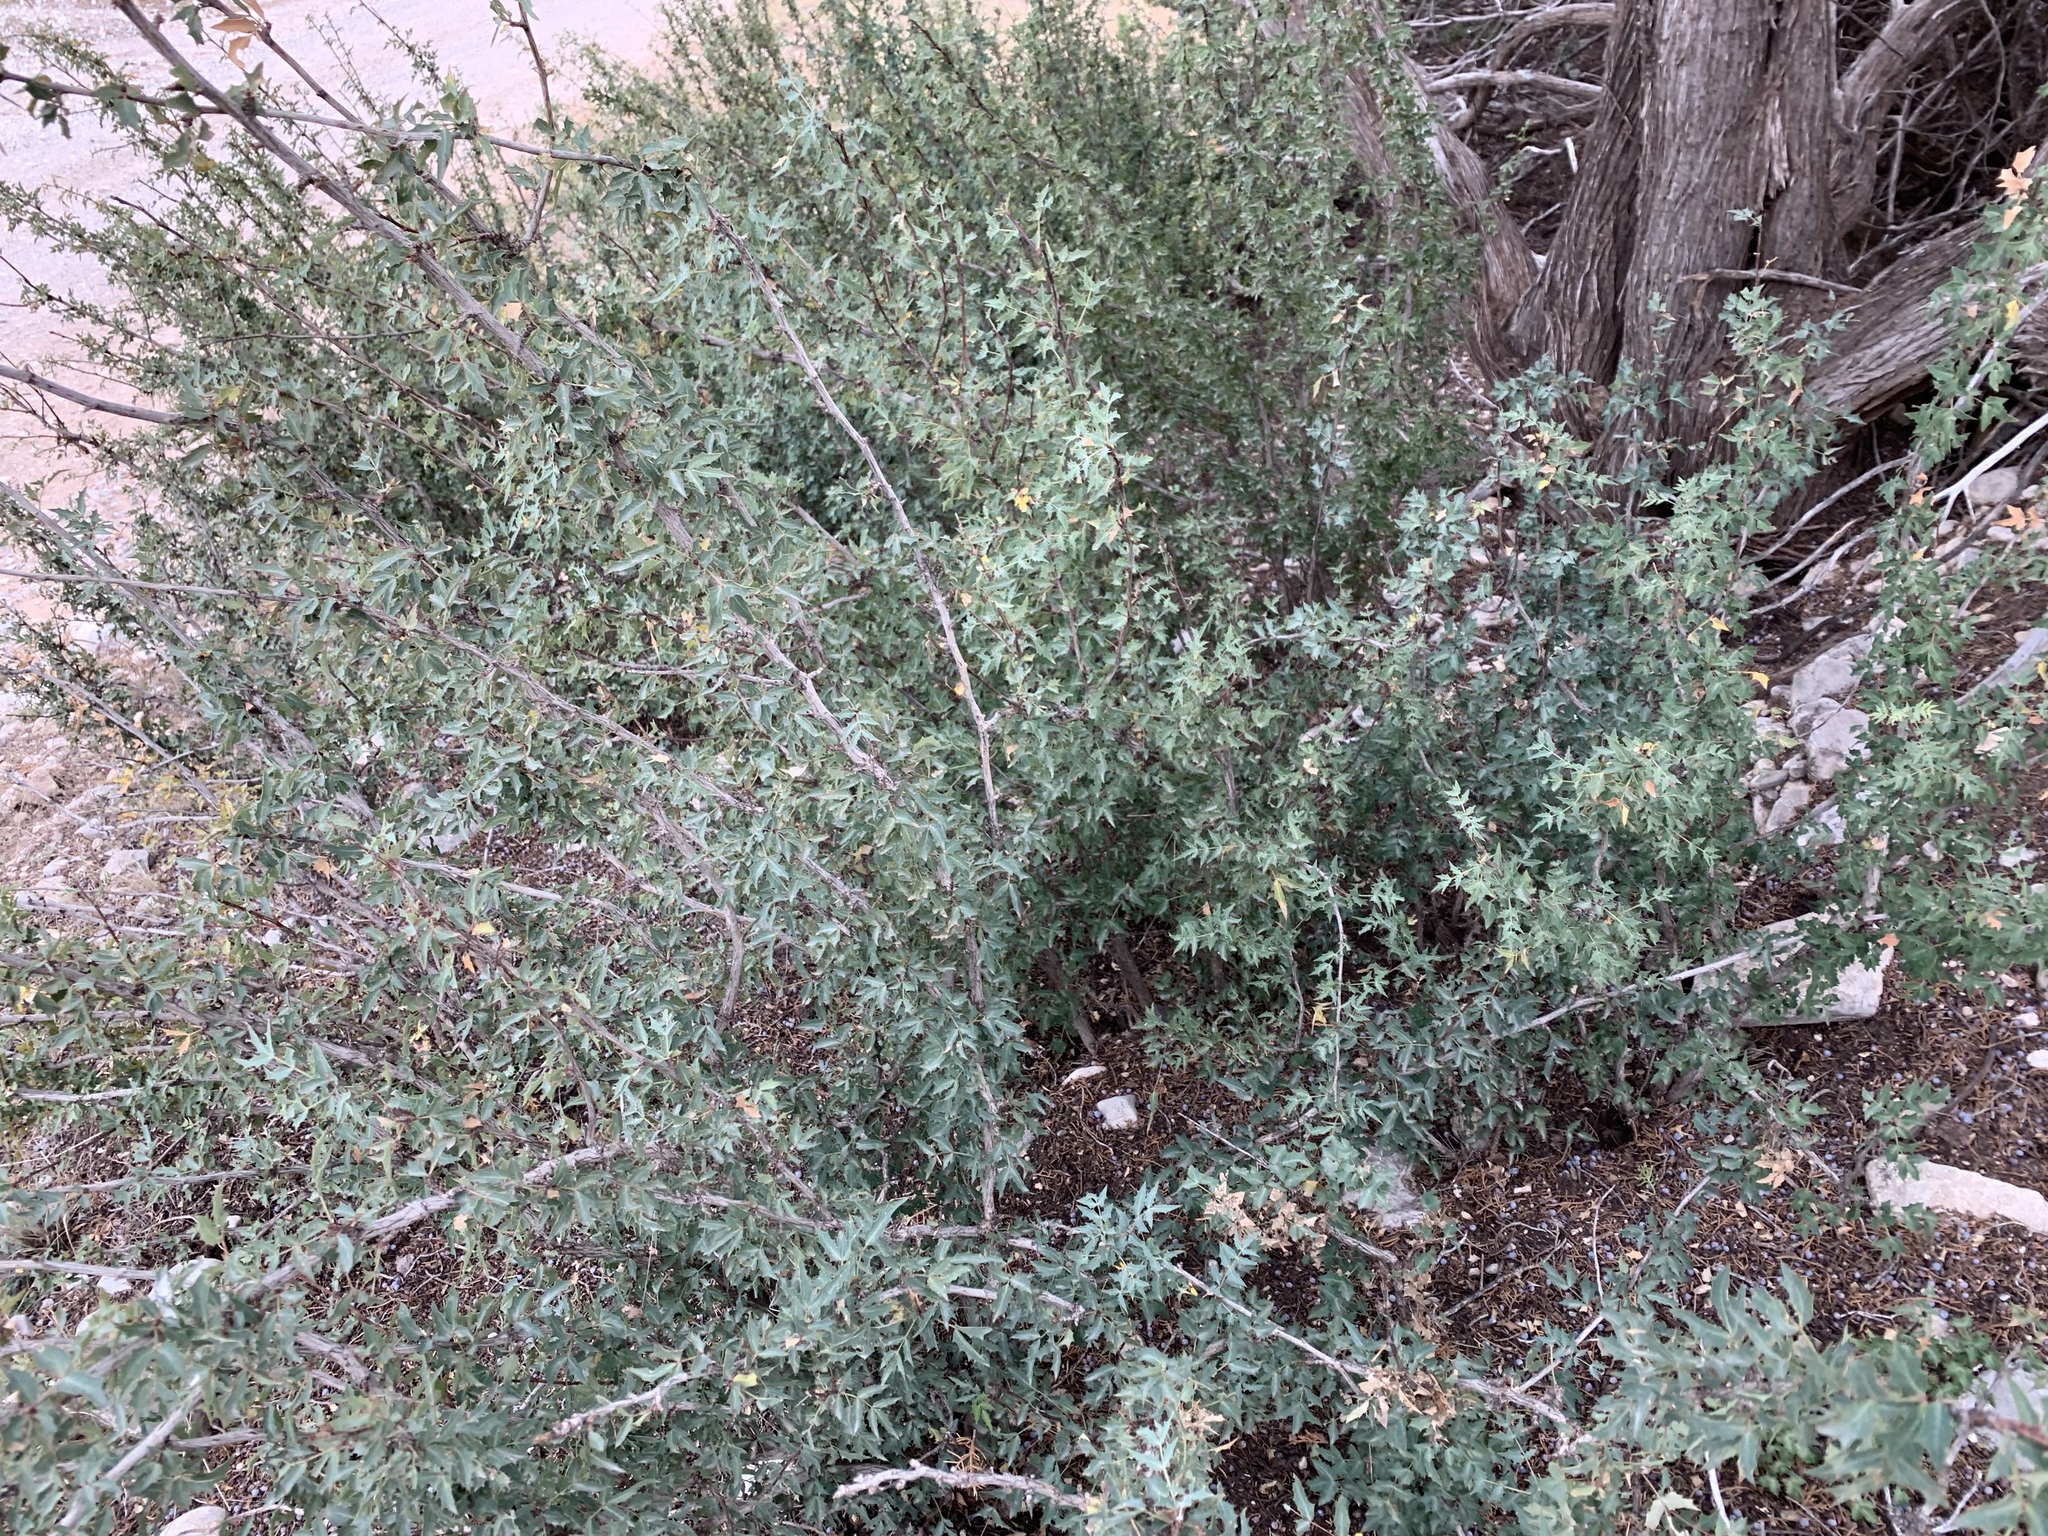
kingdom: Plantae
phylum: Tracheophyta
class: Magnoliopsida
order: Ranunculales
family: Berberidaceae
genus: Alloberberis
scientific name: Alloberberis haematocarpa
